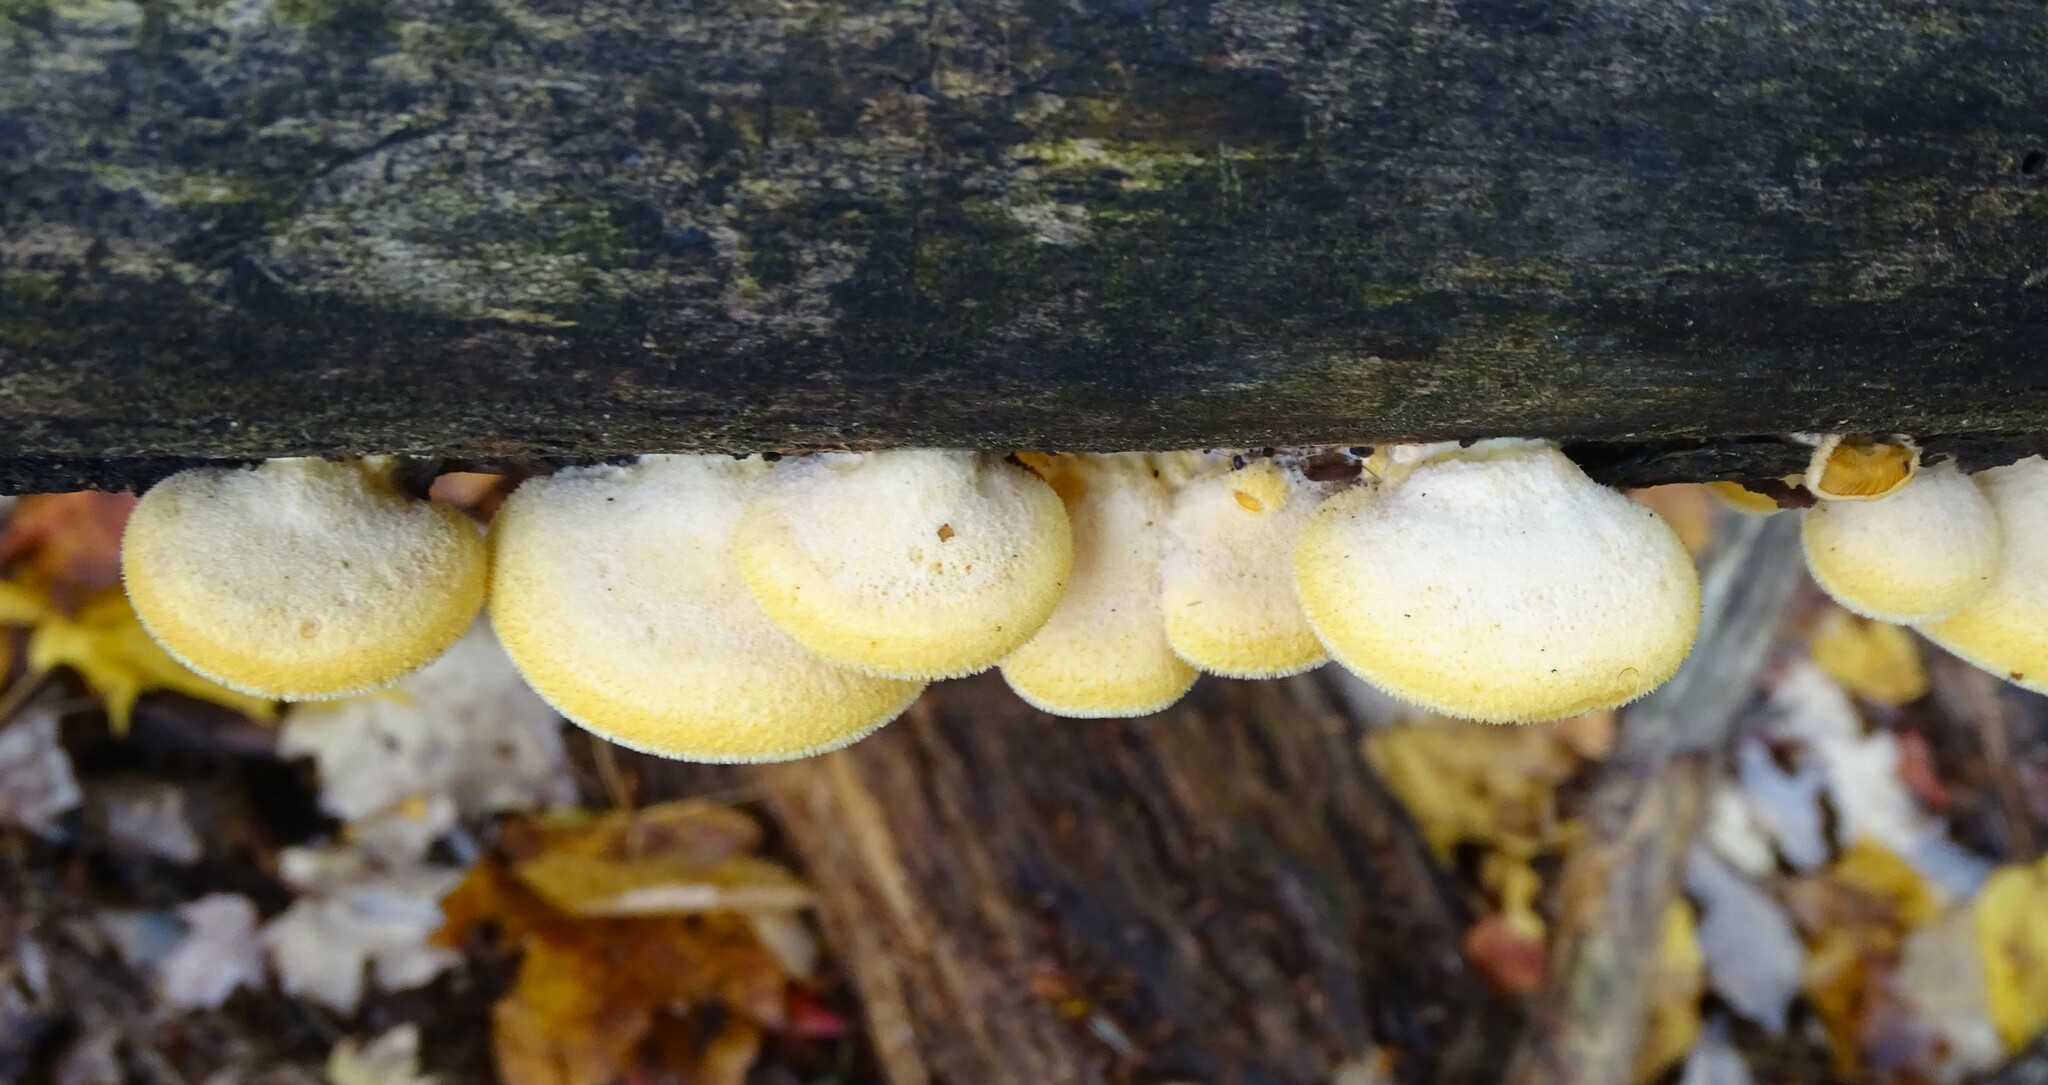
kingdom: Fungi
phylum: Basidiomycota
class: Agaricomycetes
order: Agaricales
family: Phyllotopsidaceae
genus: Phyllotopsis
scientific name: Phyllotopsis nidulans
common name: Orange mock oyster
